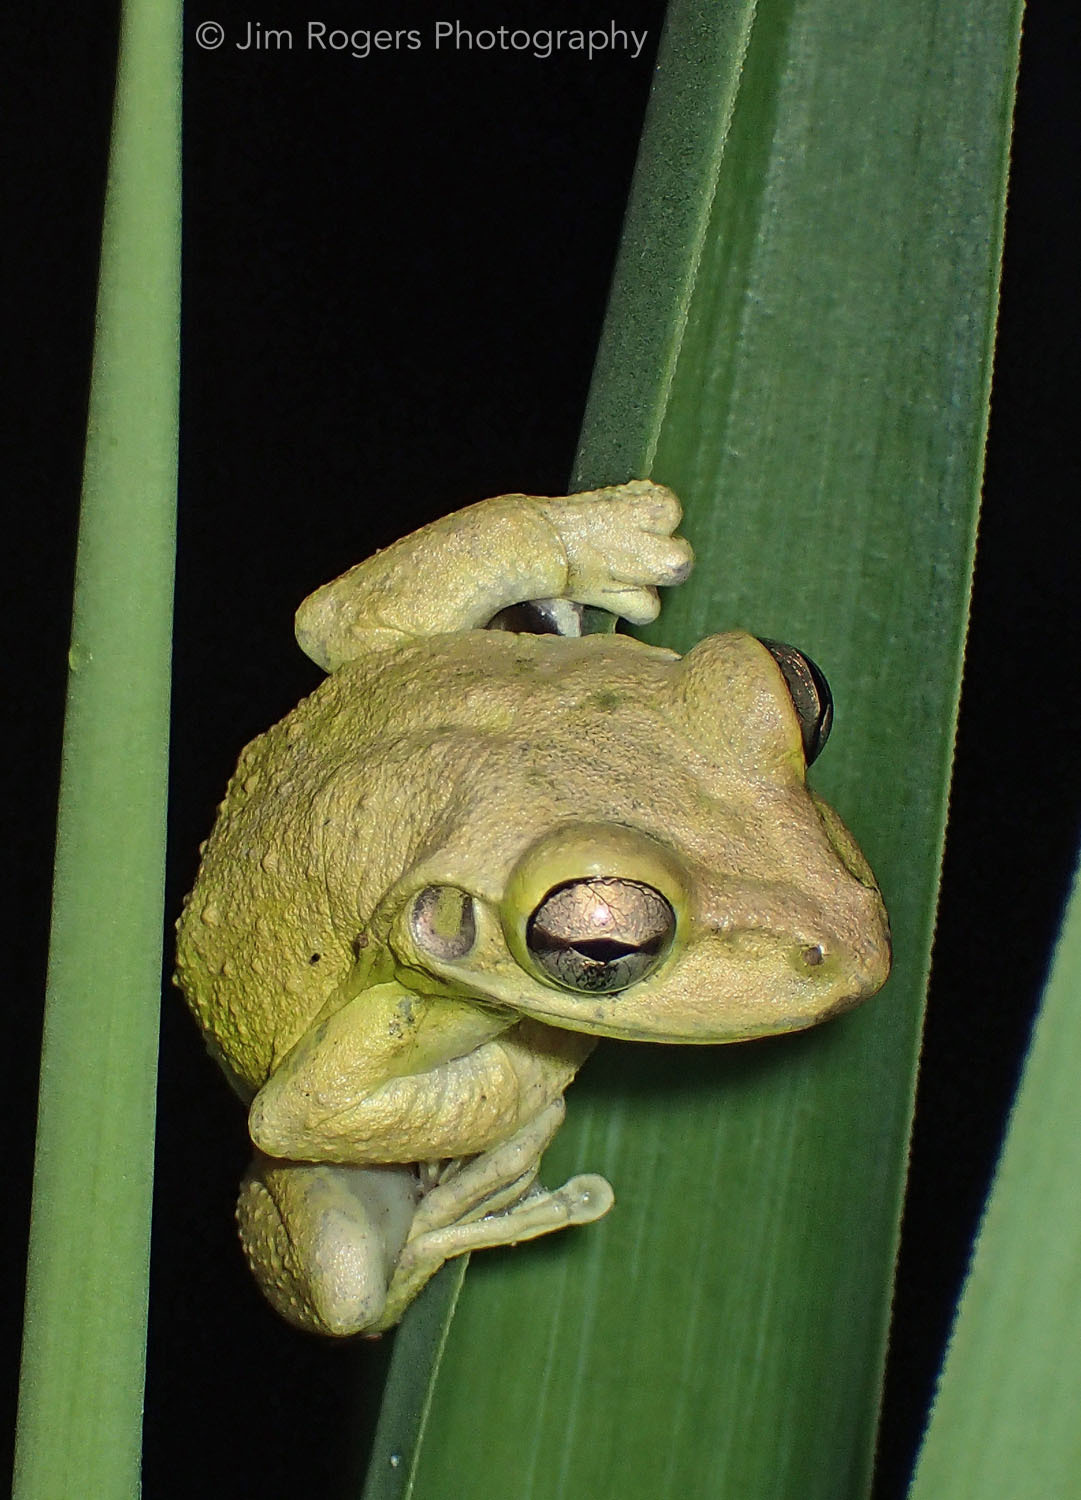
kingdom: Animalia
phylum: Chordata
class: Amphibia
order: Anura
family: Hylidae
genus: Osteopilus
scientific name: Osteopilus septentrionalis
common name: Cuban treefrog
